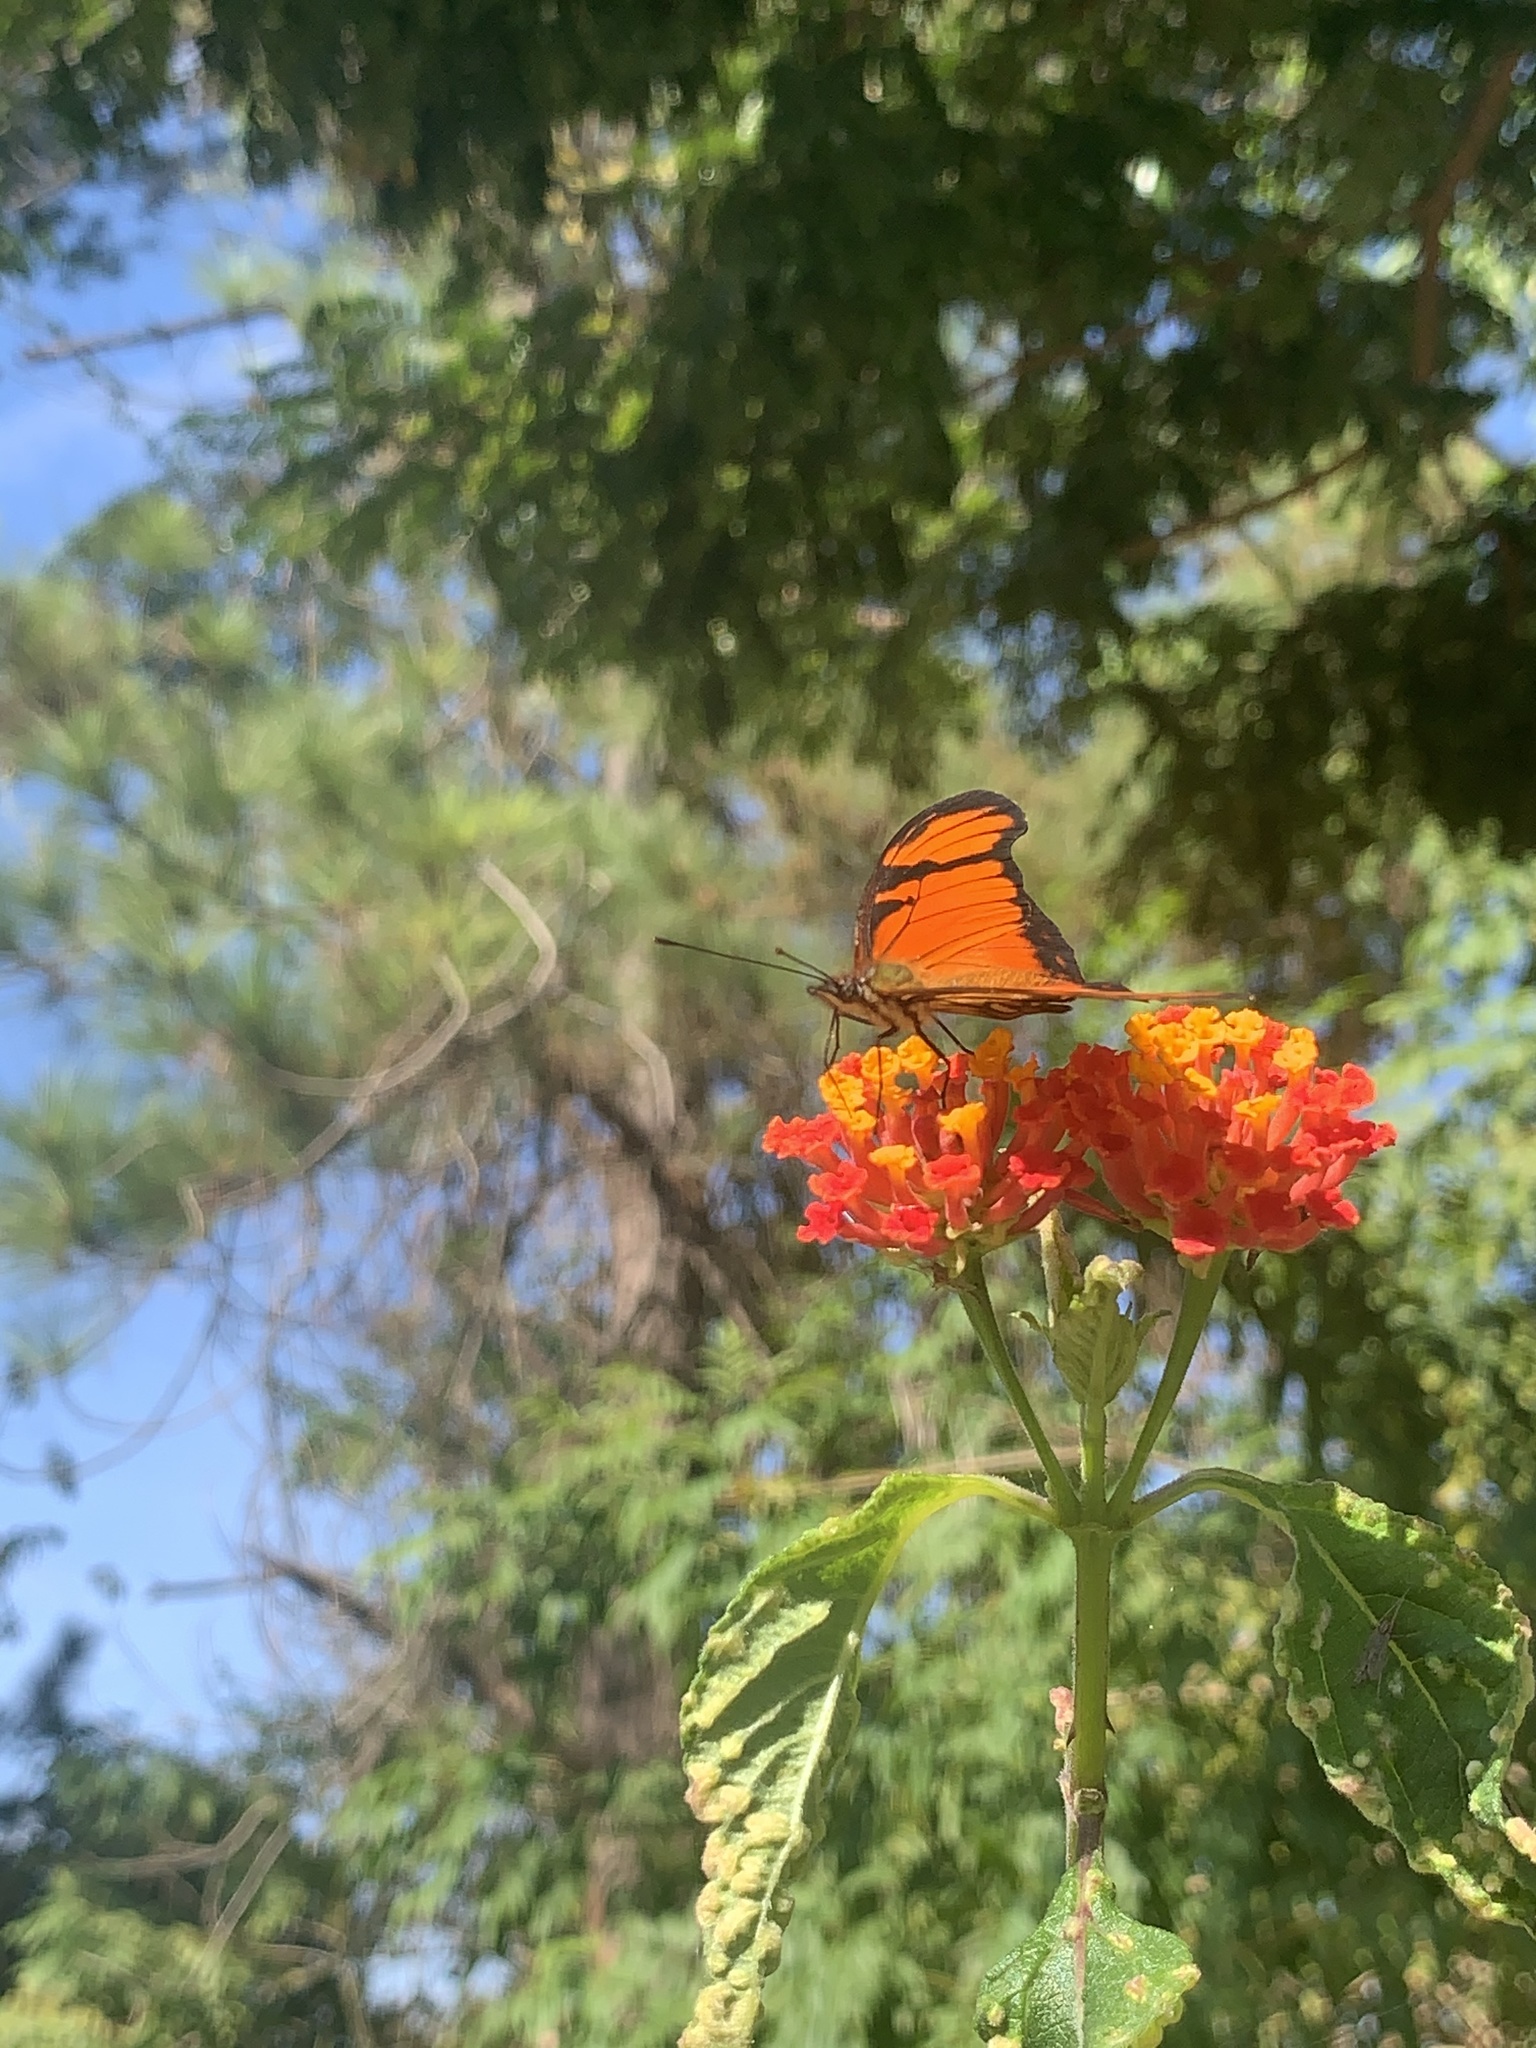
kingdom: Animalia
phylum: Arthropoda
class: Insecta
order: Lepidoptera
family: Nymphalidae
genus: Dione
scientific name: Dione juno
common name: Juno silverspot
